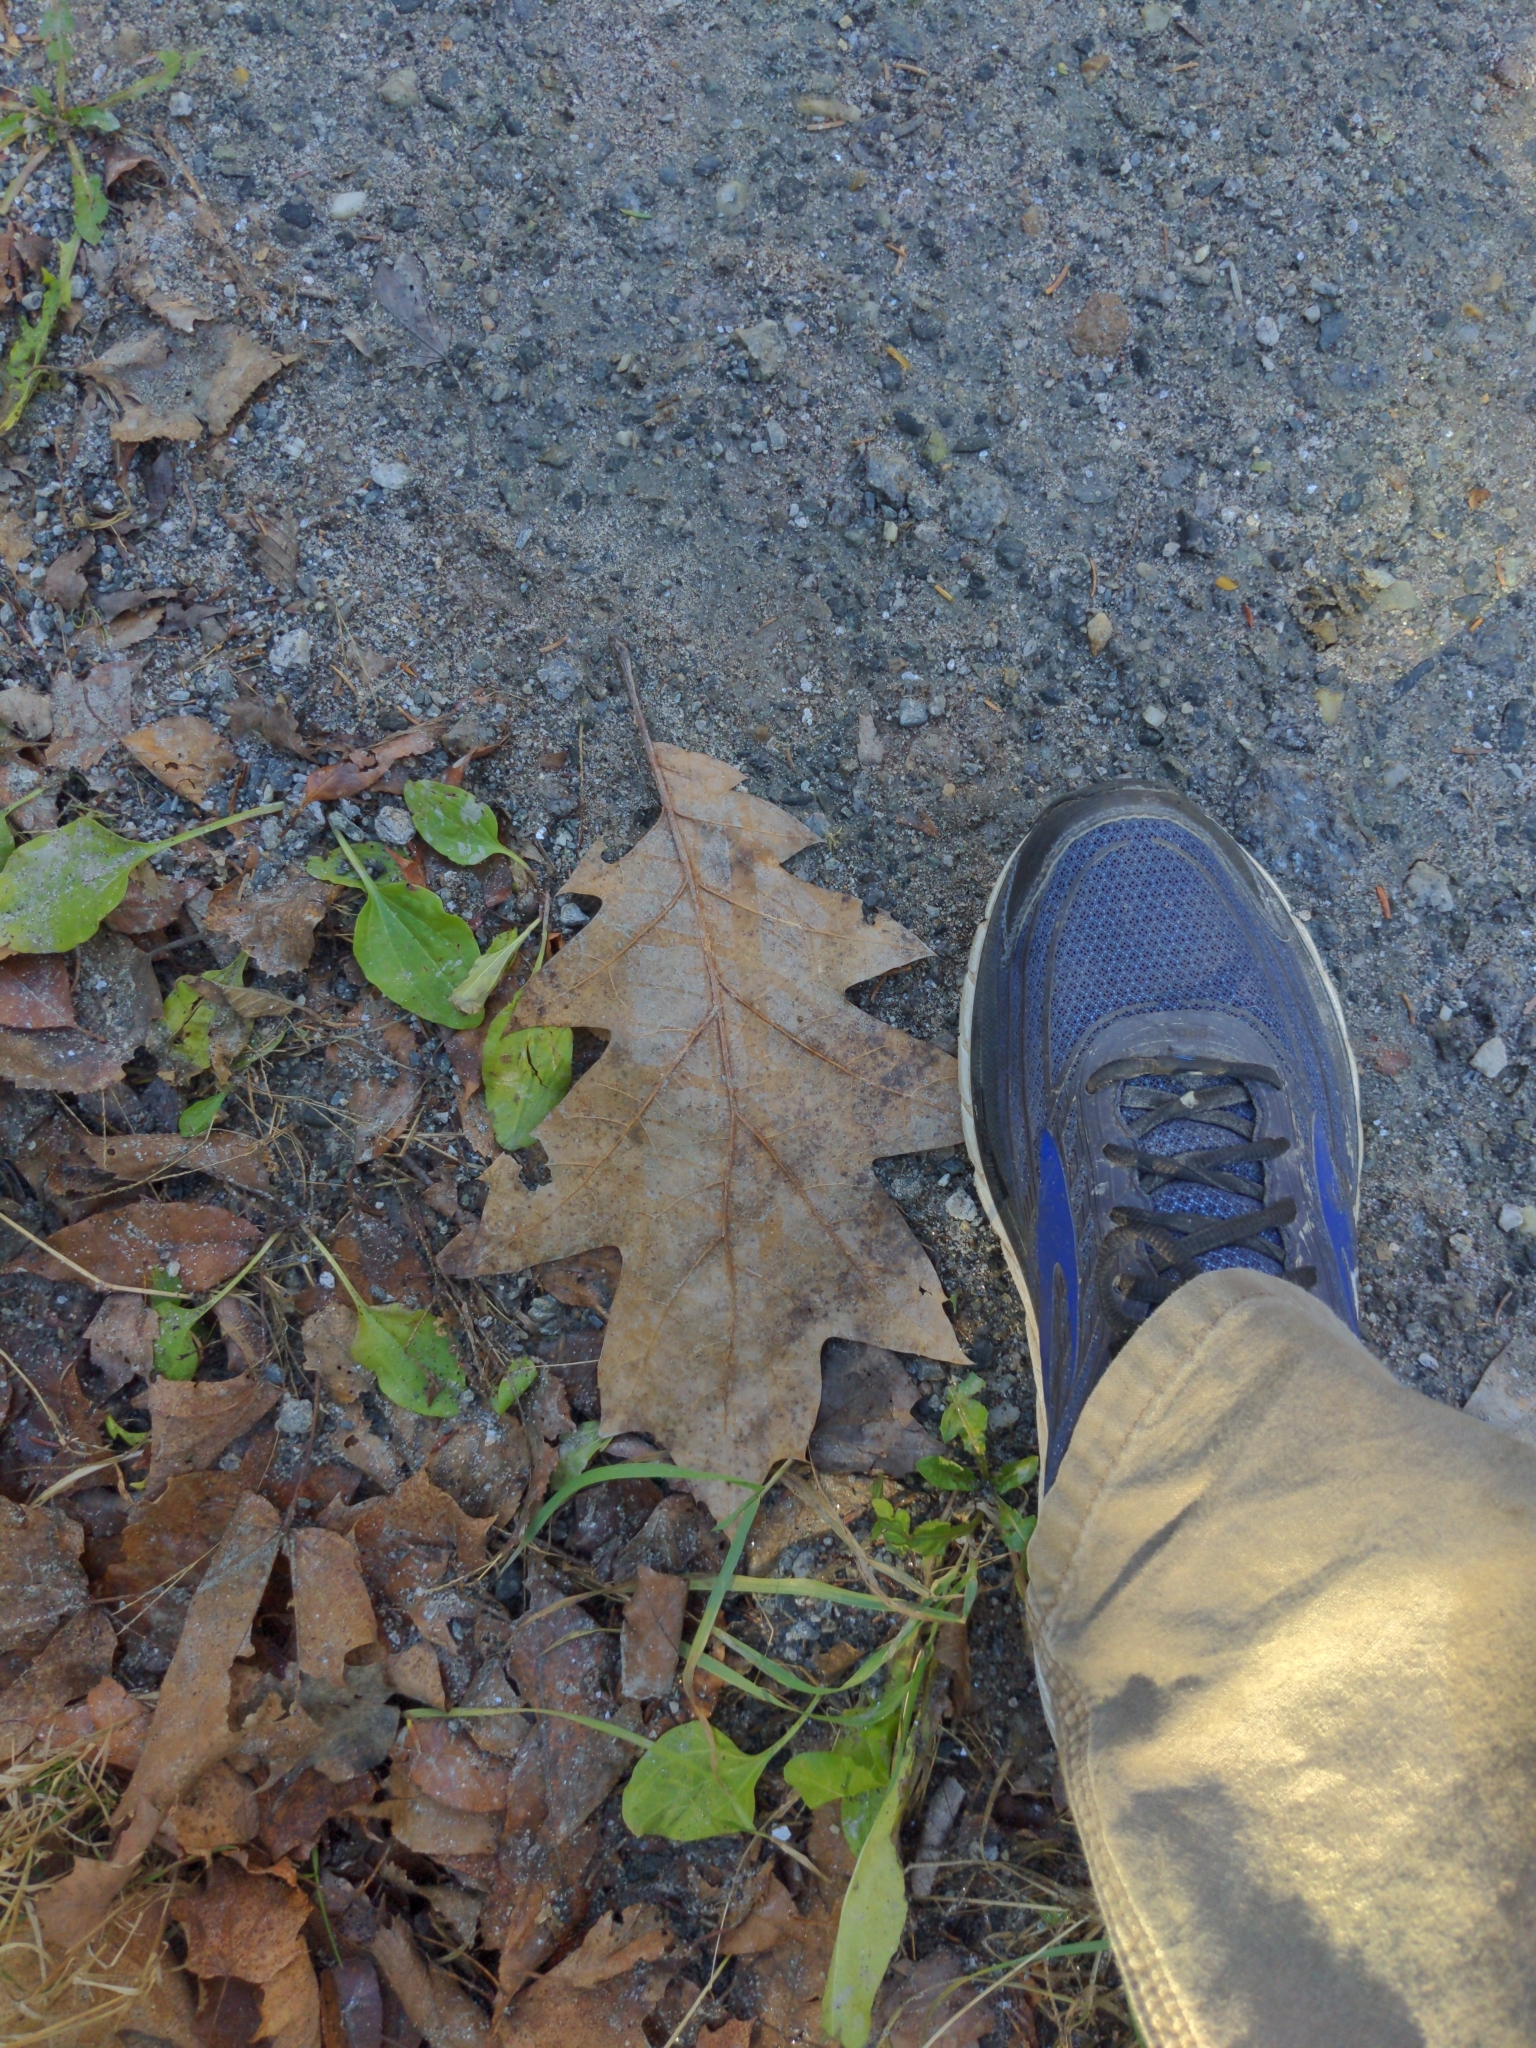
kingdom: Plantae
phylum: Tracheophyta
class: Magnoliopsida
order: Fagales
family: Fagaceae
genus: Quercus
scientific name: Quercus rubra
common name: Red oak
